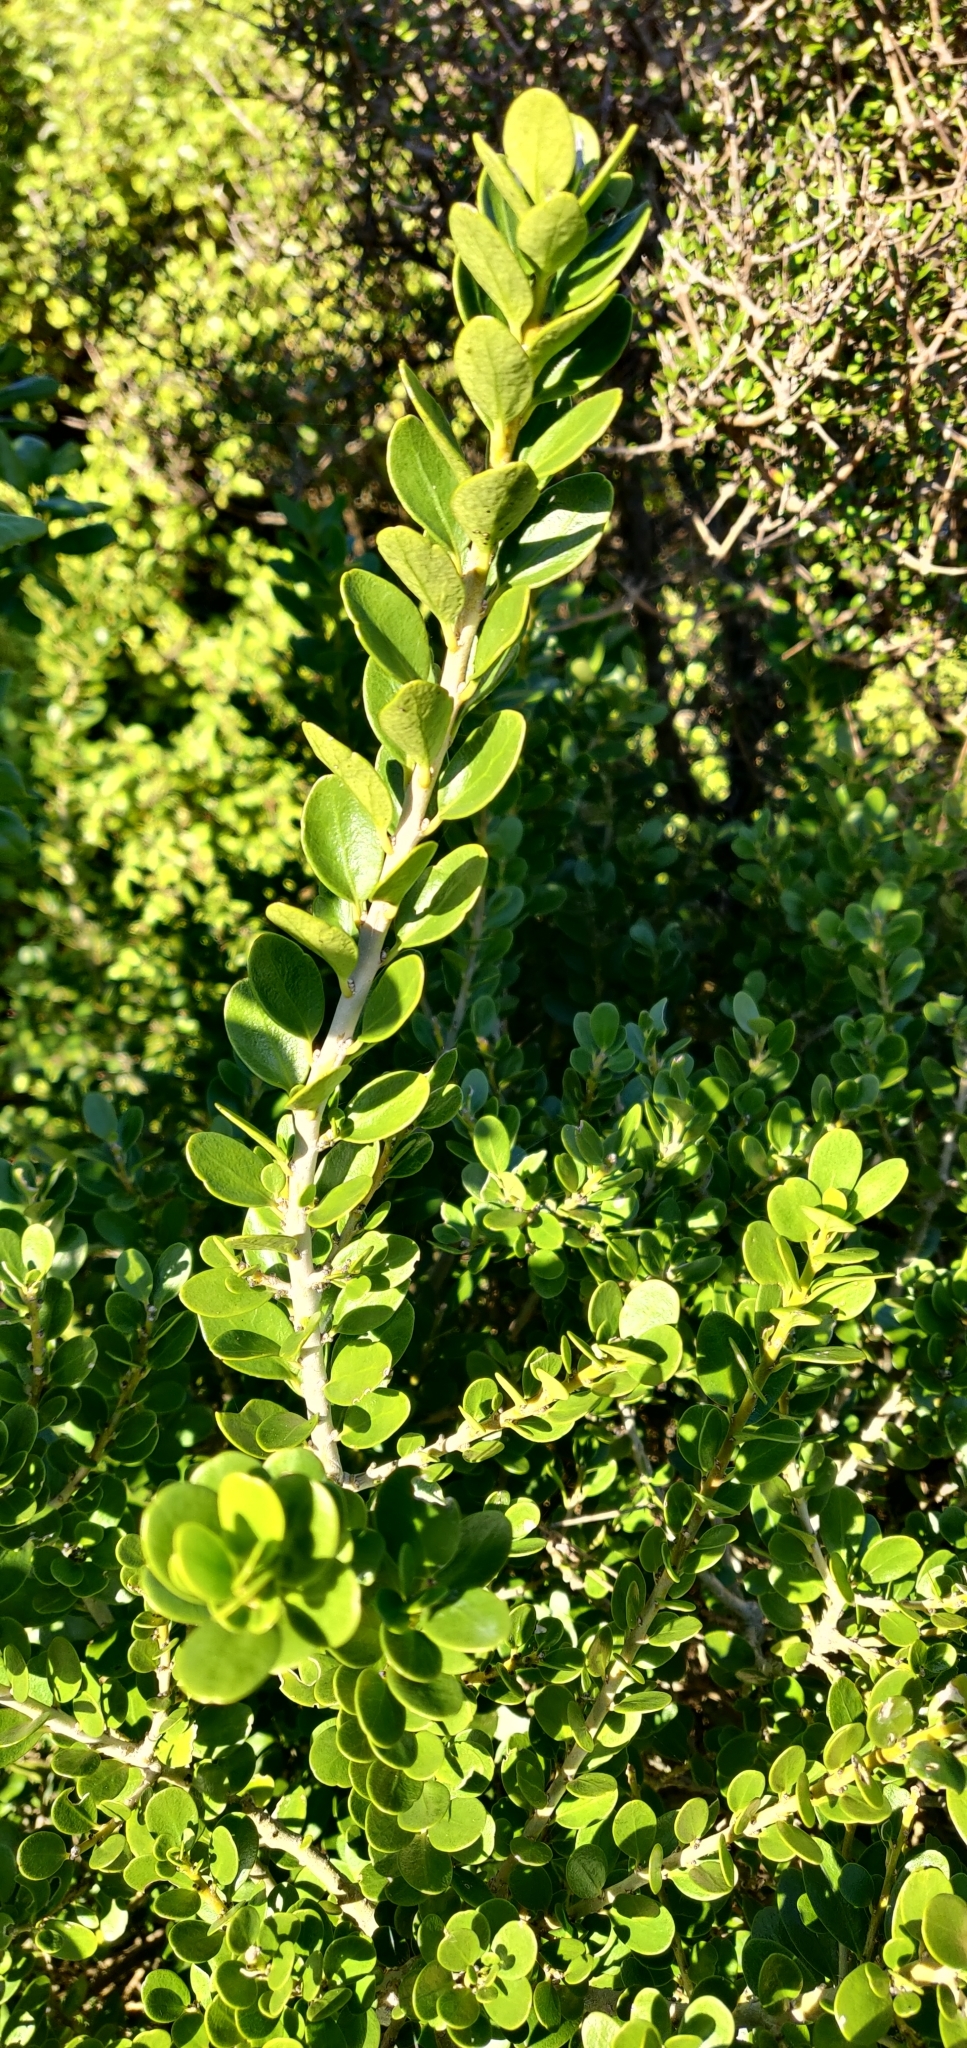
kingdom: Plantae
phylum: Tracheophyta
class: Magnoliopsida
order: Malpighiales
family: Violaceae
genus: Melicytus
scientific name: Melicytus orarius
